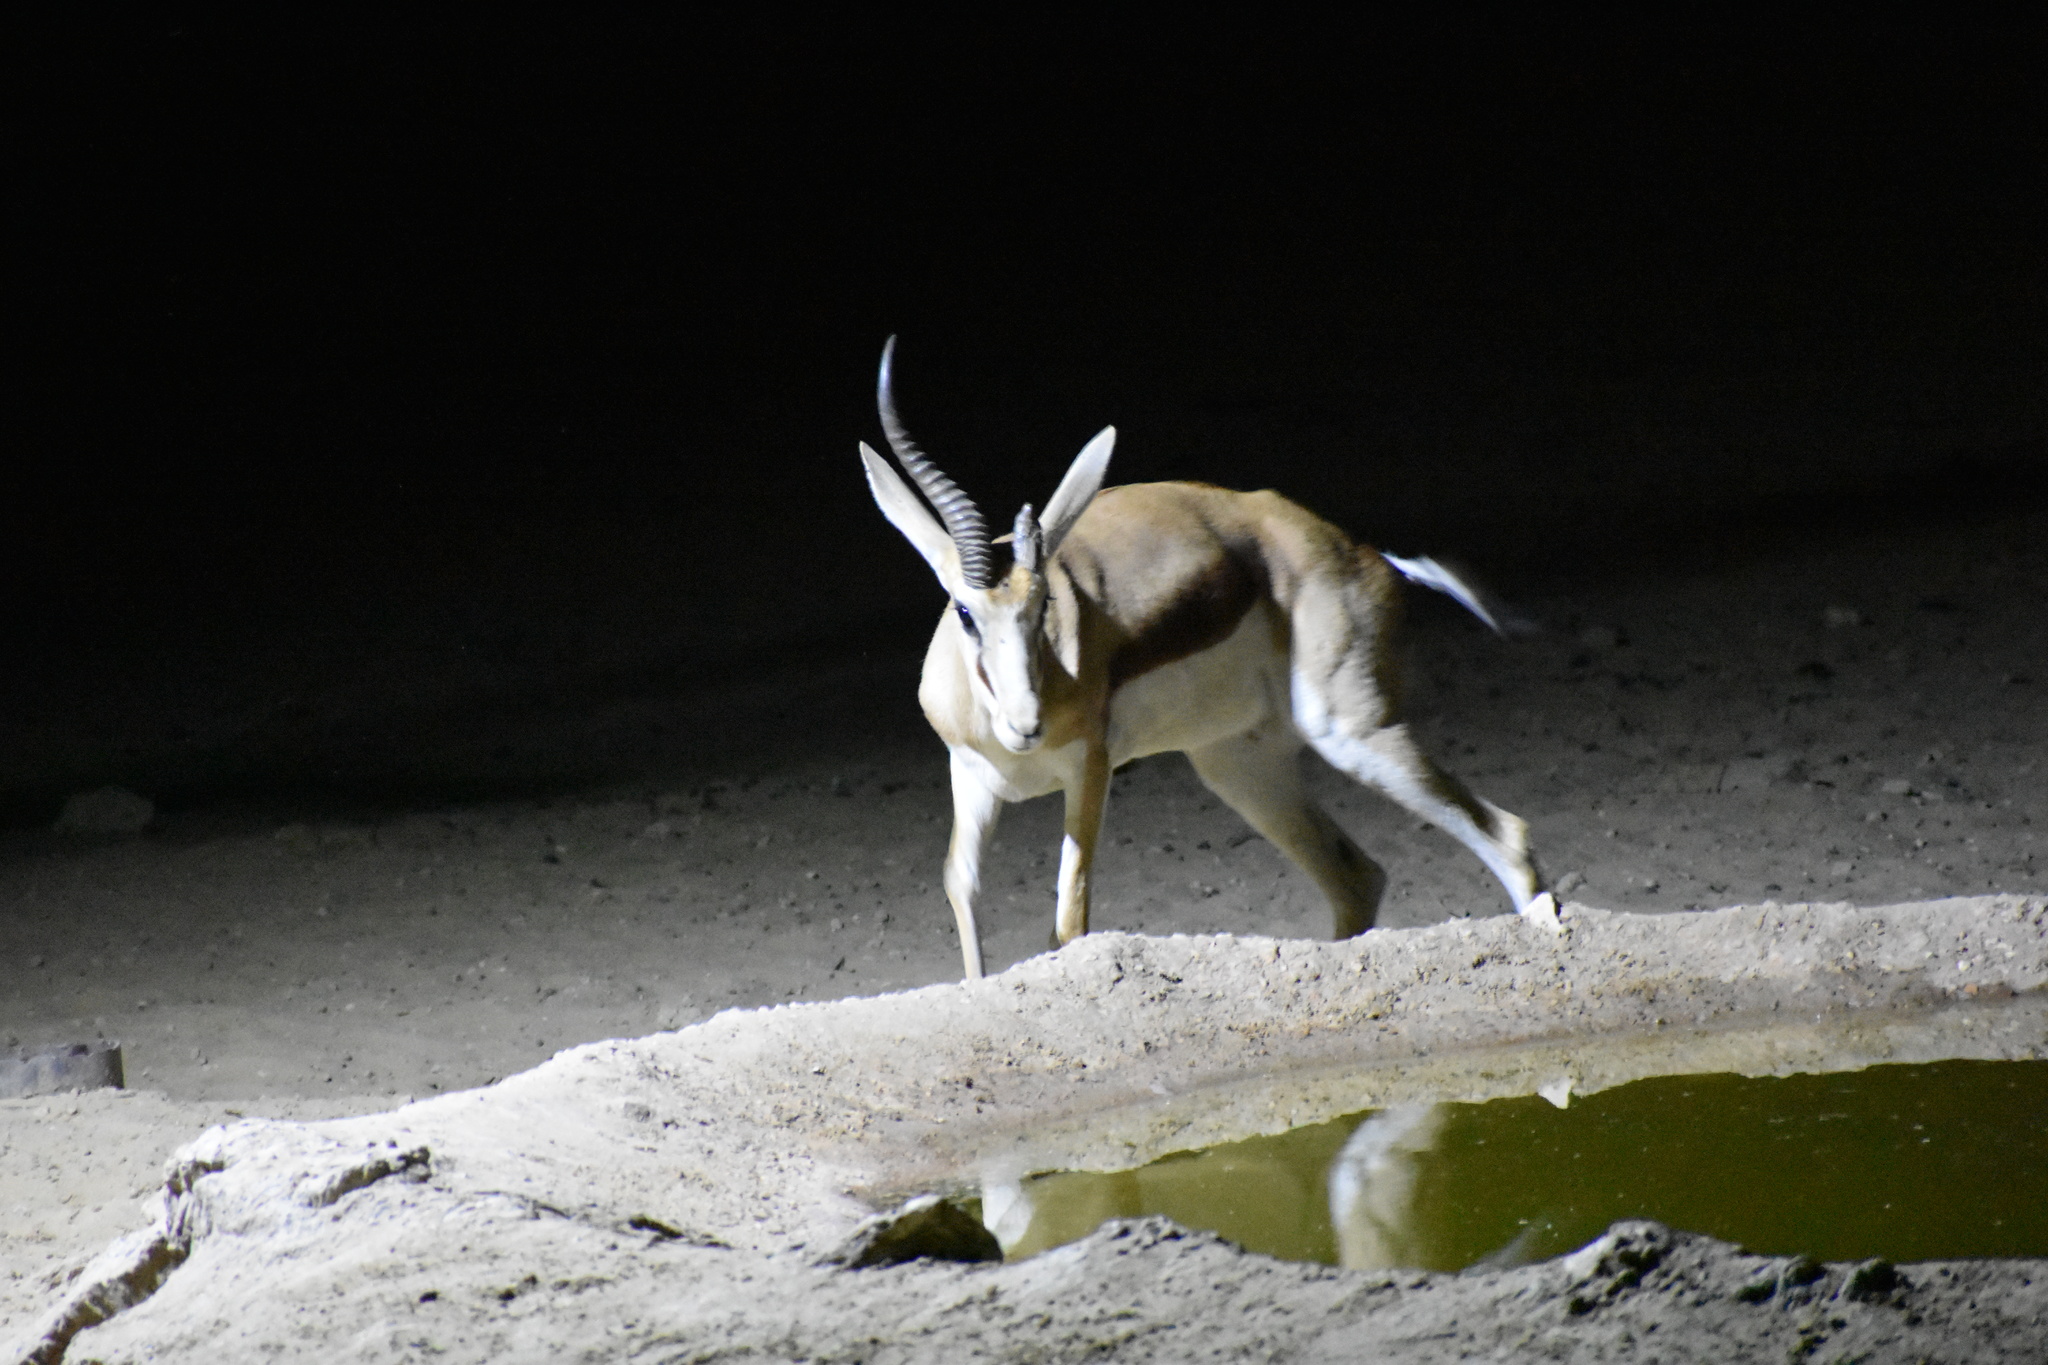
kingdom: Animalia
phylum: Chordata
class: Mammalia
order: Artiodactyla
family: Bovidae
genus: Antidorcas
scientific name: Antidorcas marsupialis
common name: Springbok
